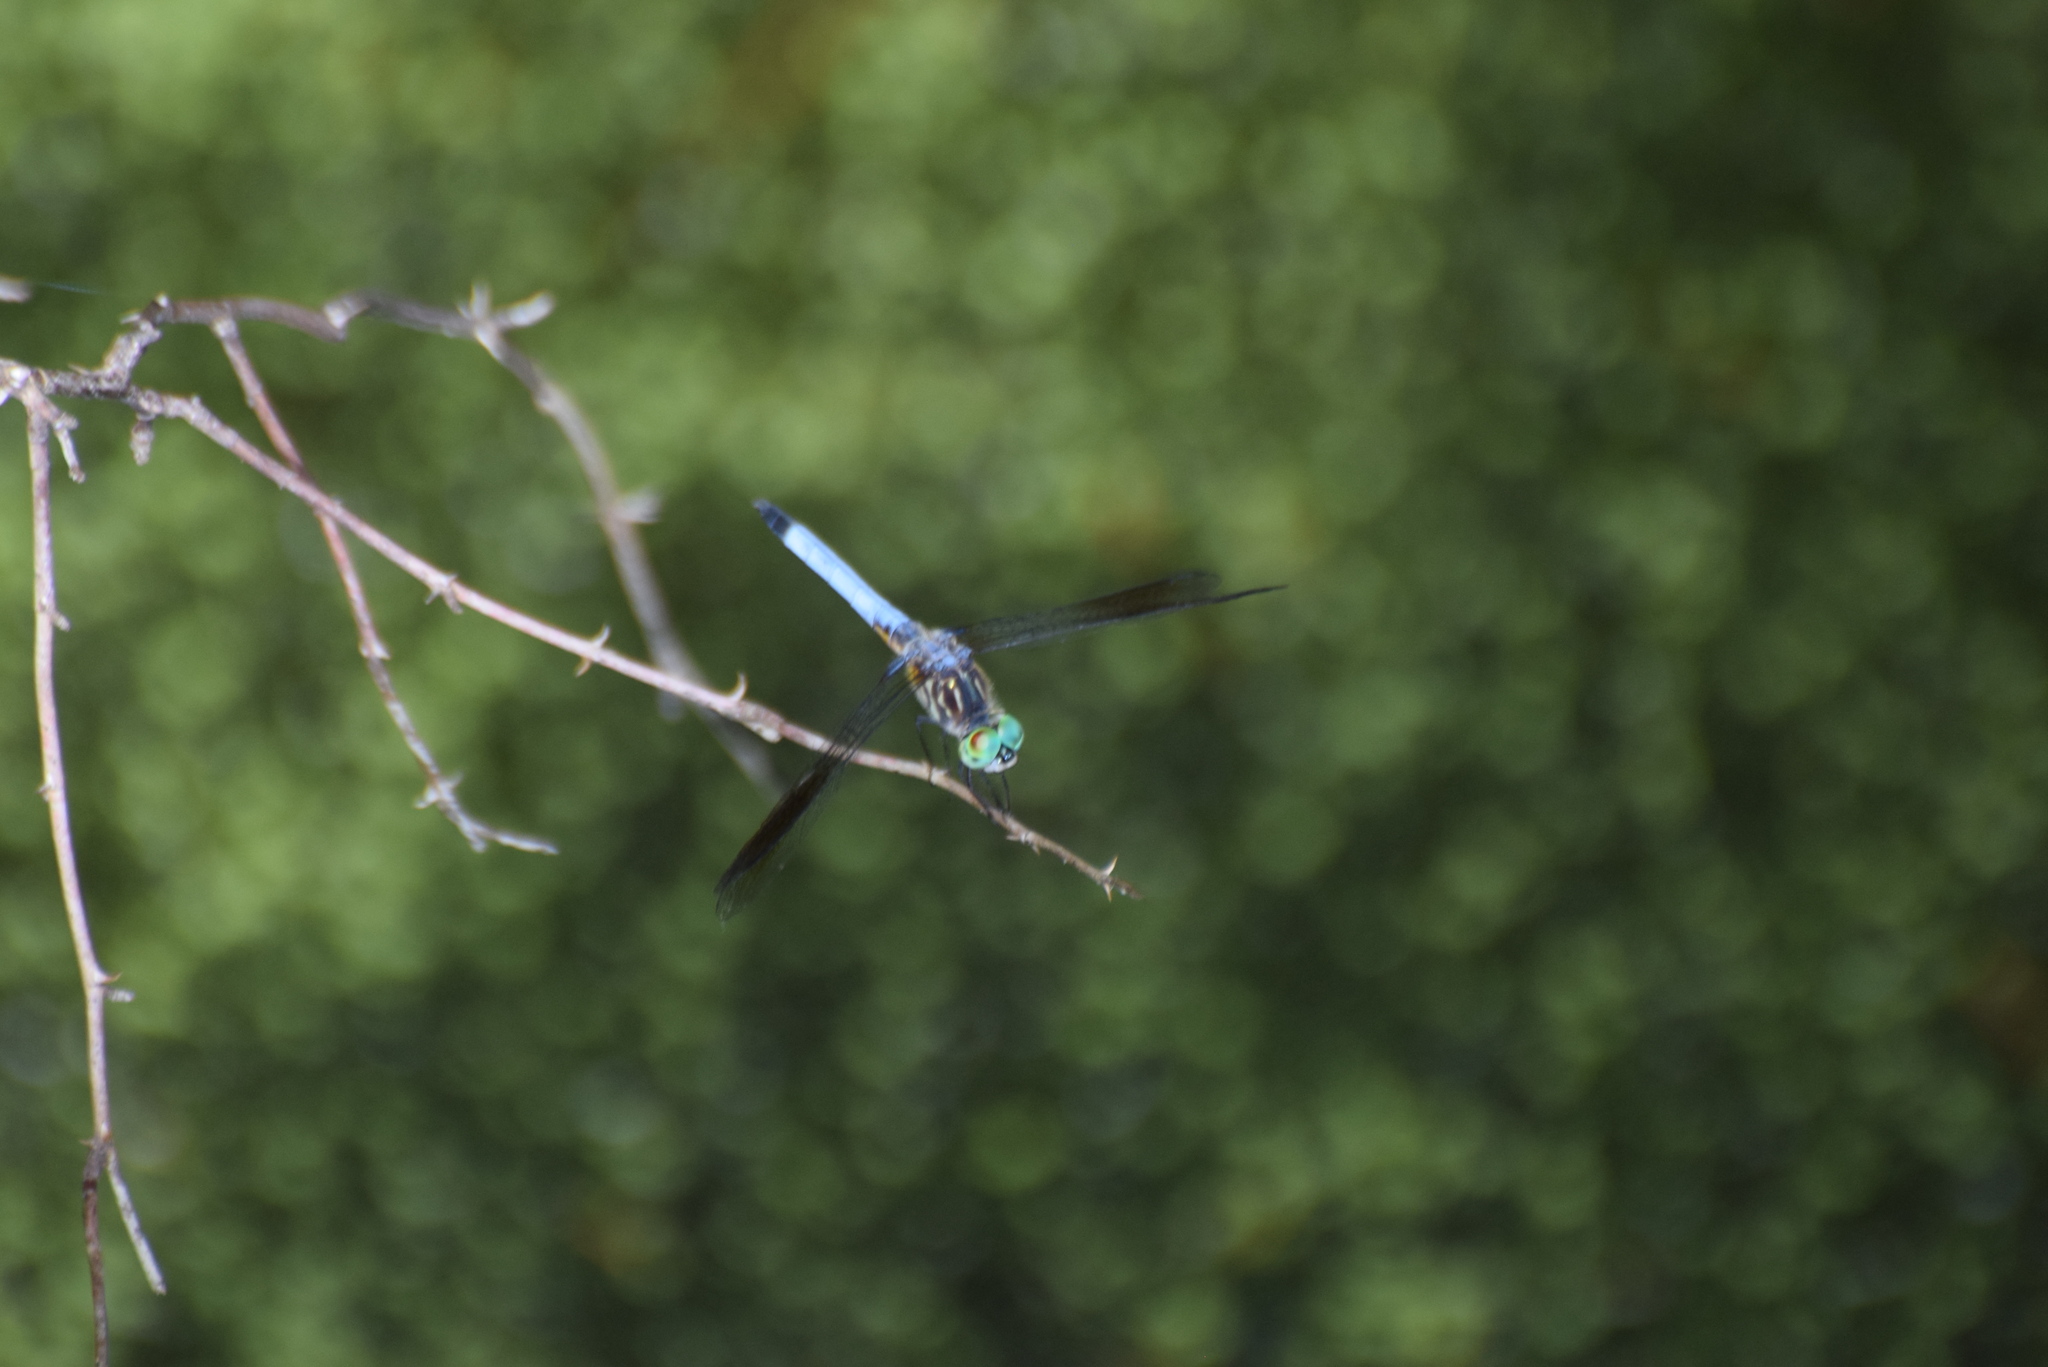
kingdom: Animalia
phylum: Arthropoda
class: Insecta
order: Odonata
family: Libellulidae
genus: Pachydiplax
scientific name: Pachydiplax longipennis
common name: Blue dasher
